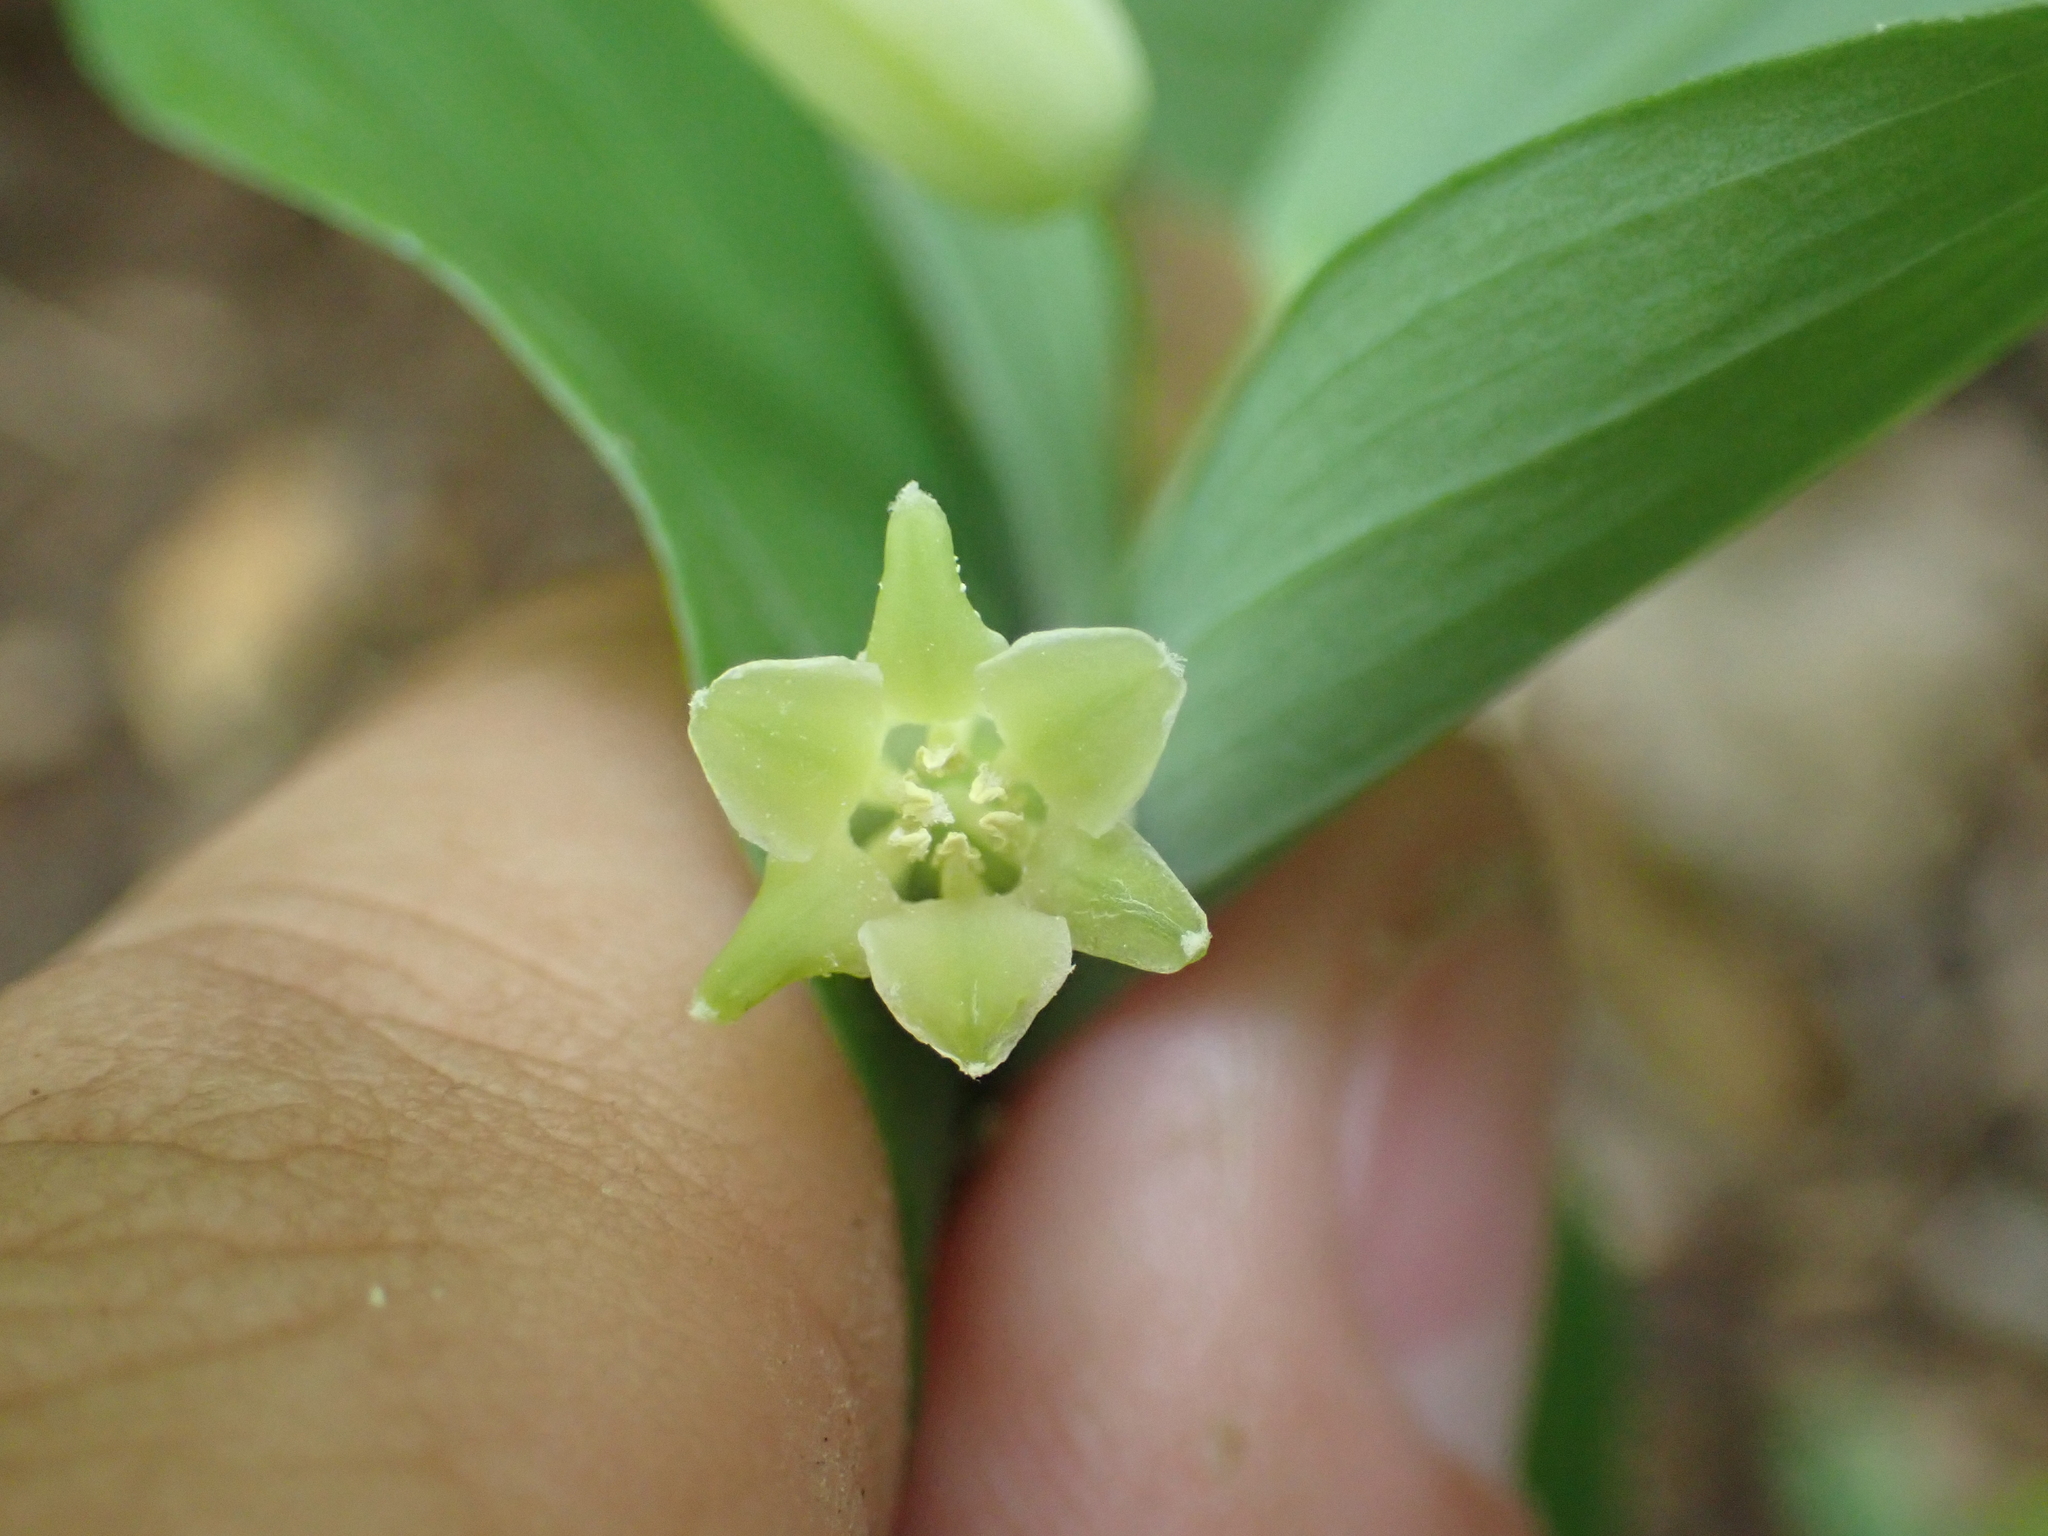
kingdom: Plantae
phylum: Tracheophyta
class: Liliopsida
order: Asparagales
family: Asparagaceae
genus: Polygonatum
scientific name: Polygonatum biflorum
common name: American solomon's-seal
